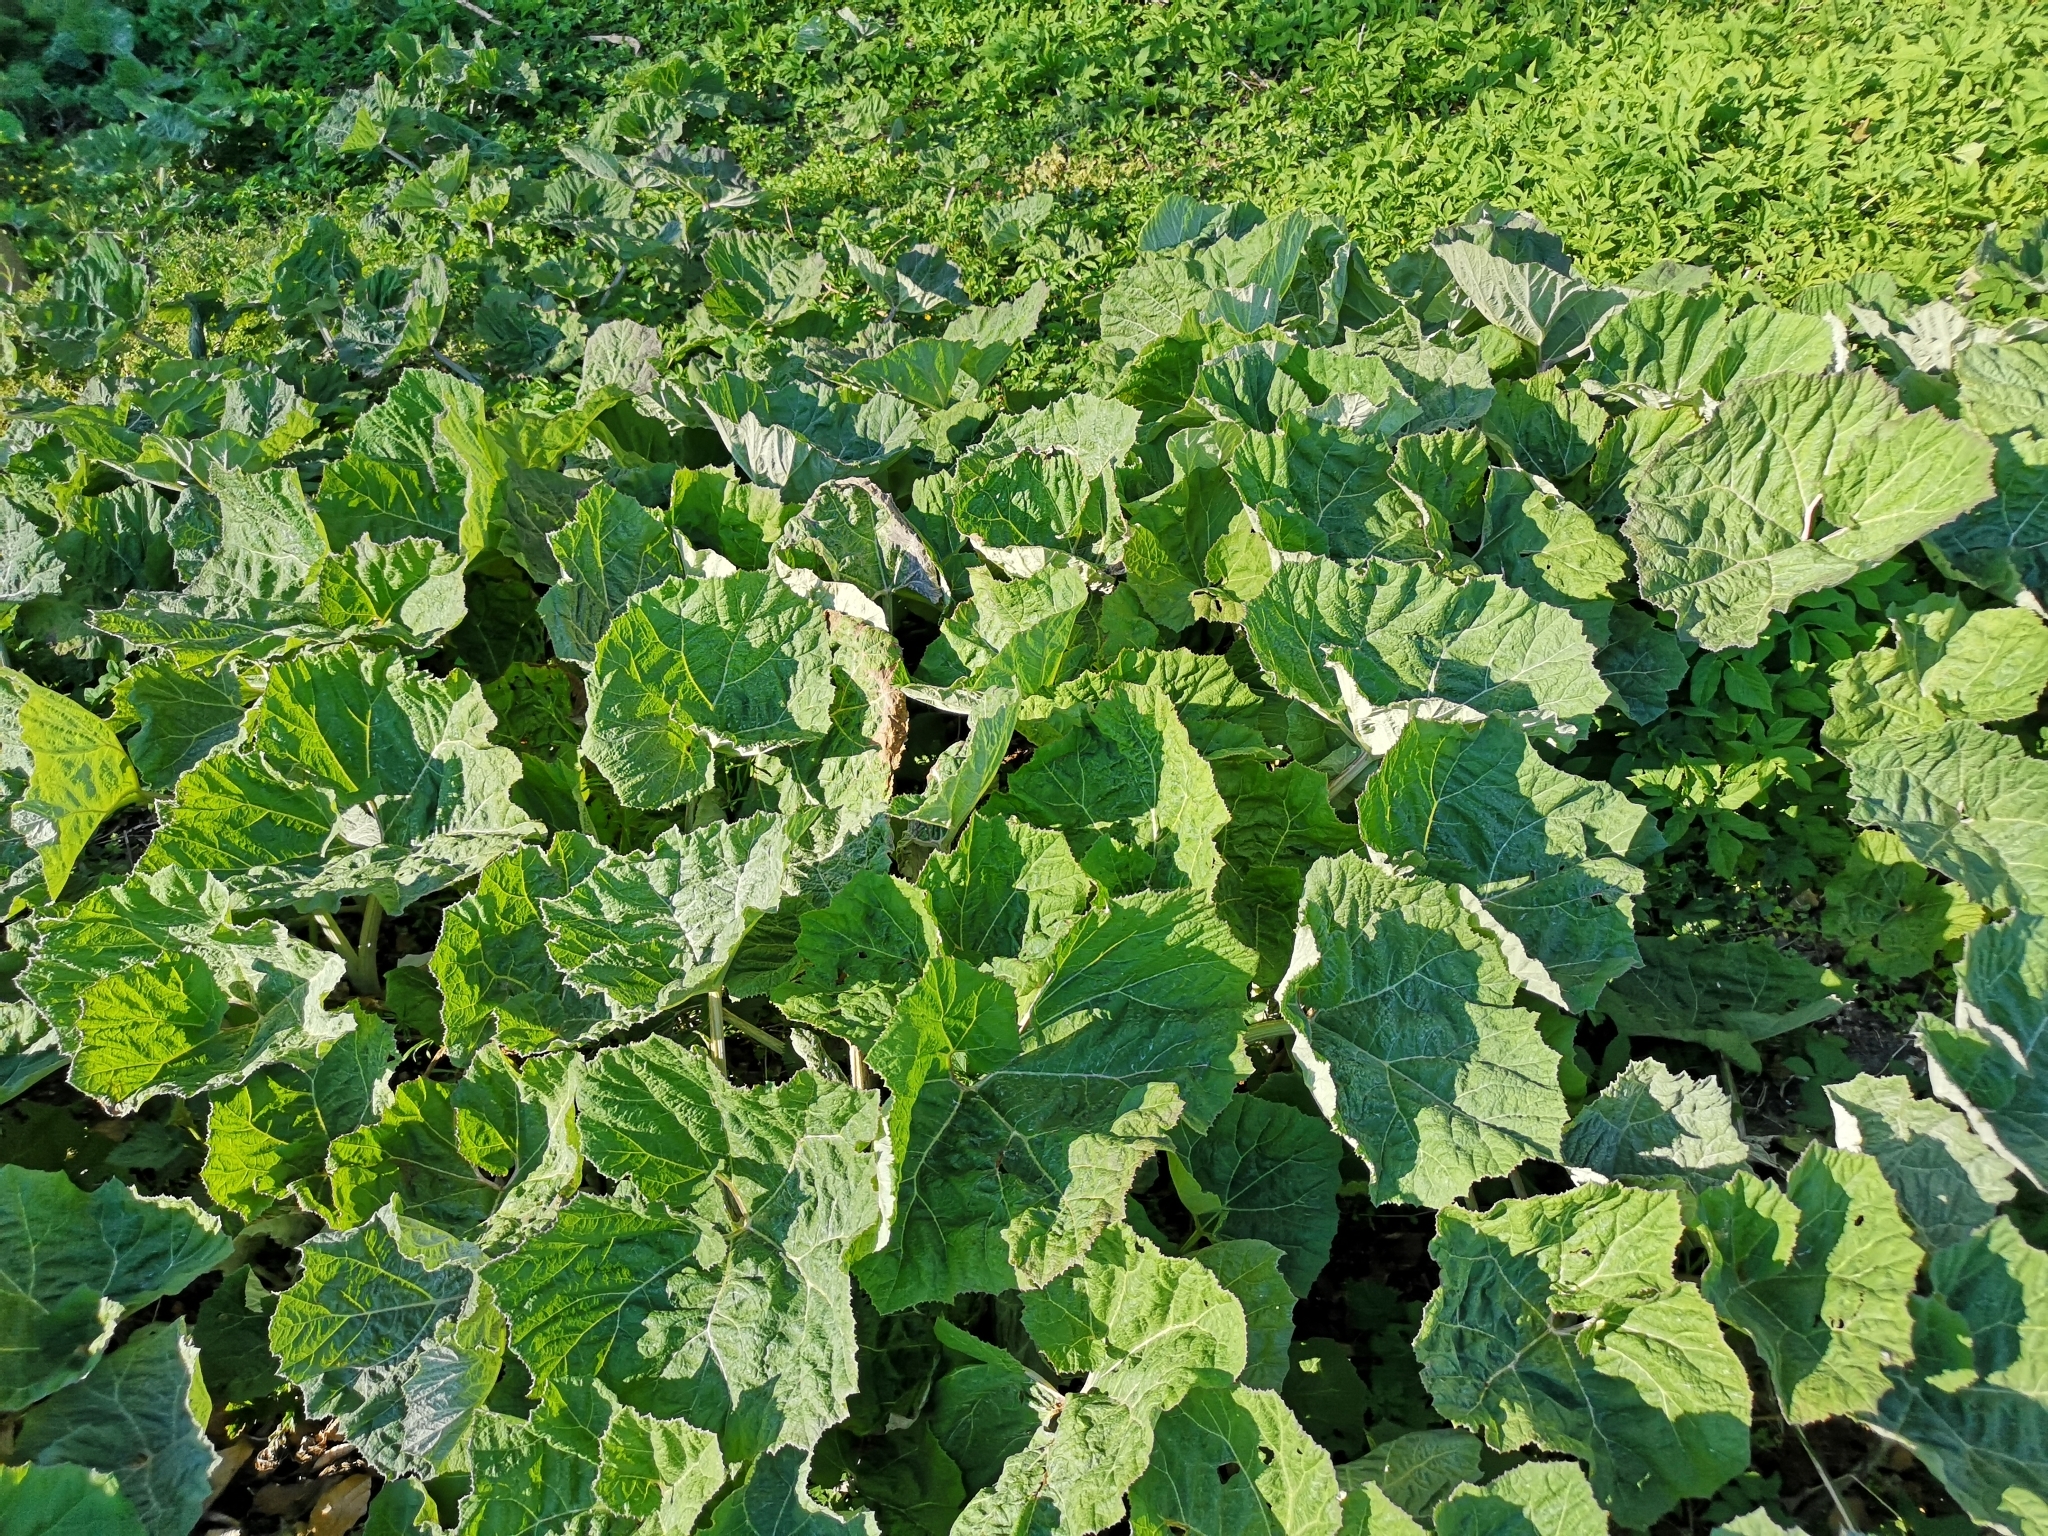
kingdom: Plantae
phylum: Tracheophyta
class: Magnoliopsida
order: Asterales
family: Asteraceae
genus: Petasites
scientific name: Petasites hybridus
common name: Butterbur
